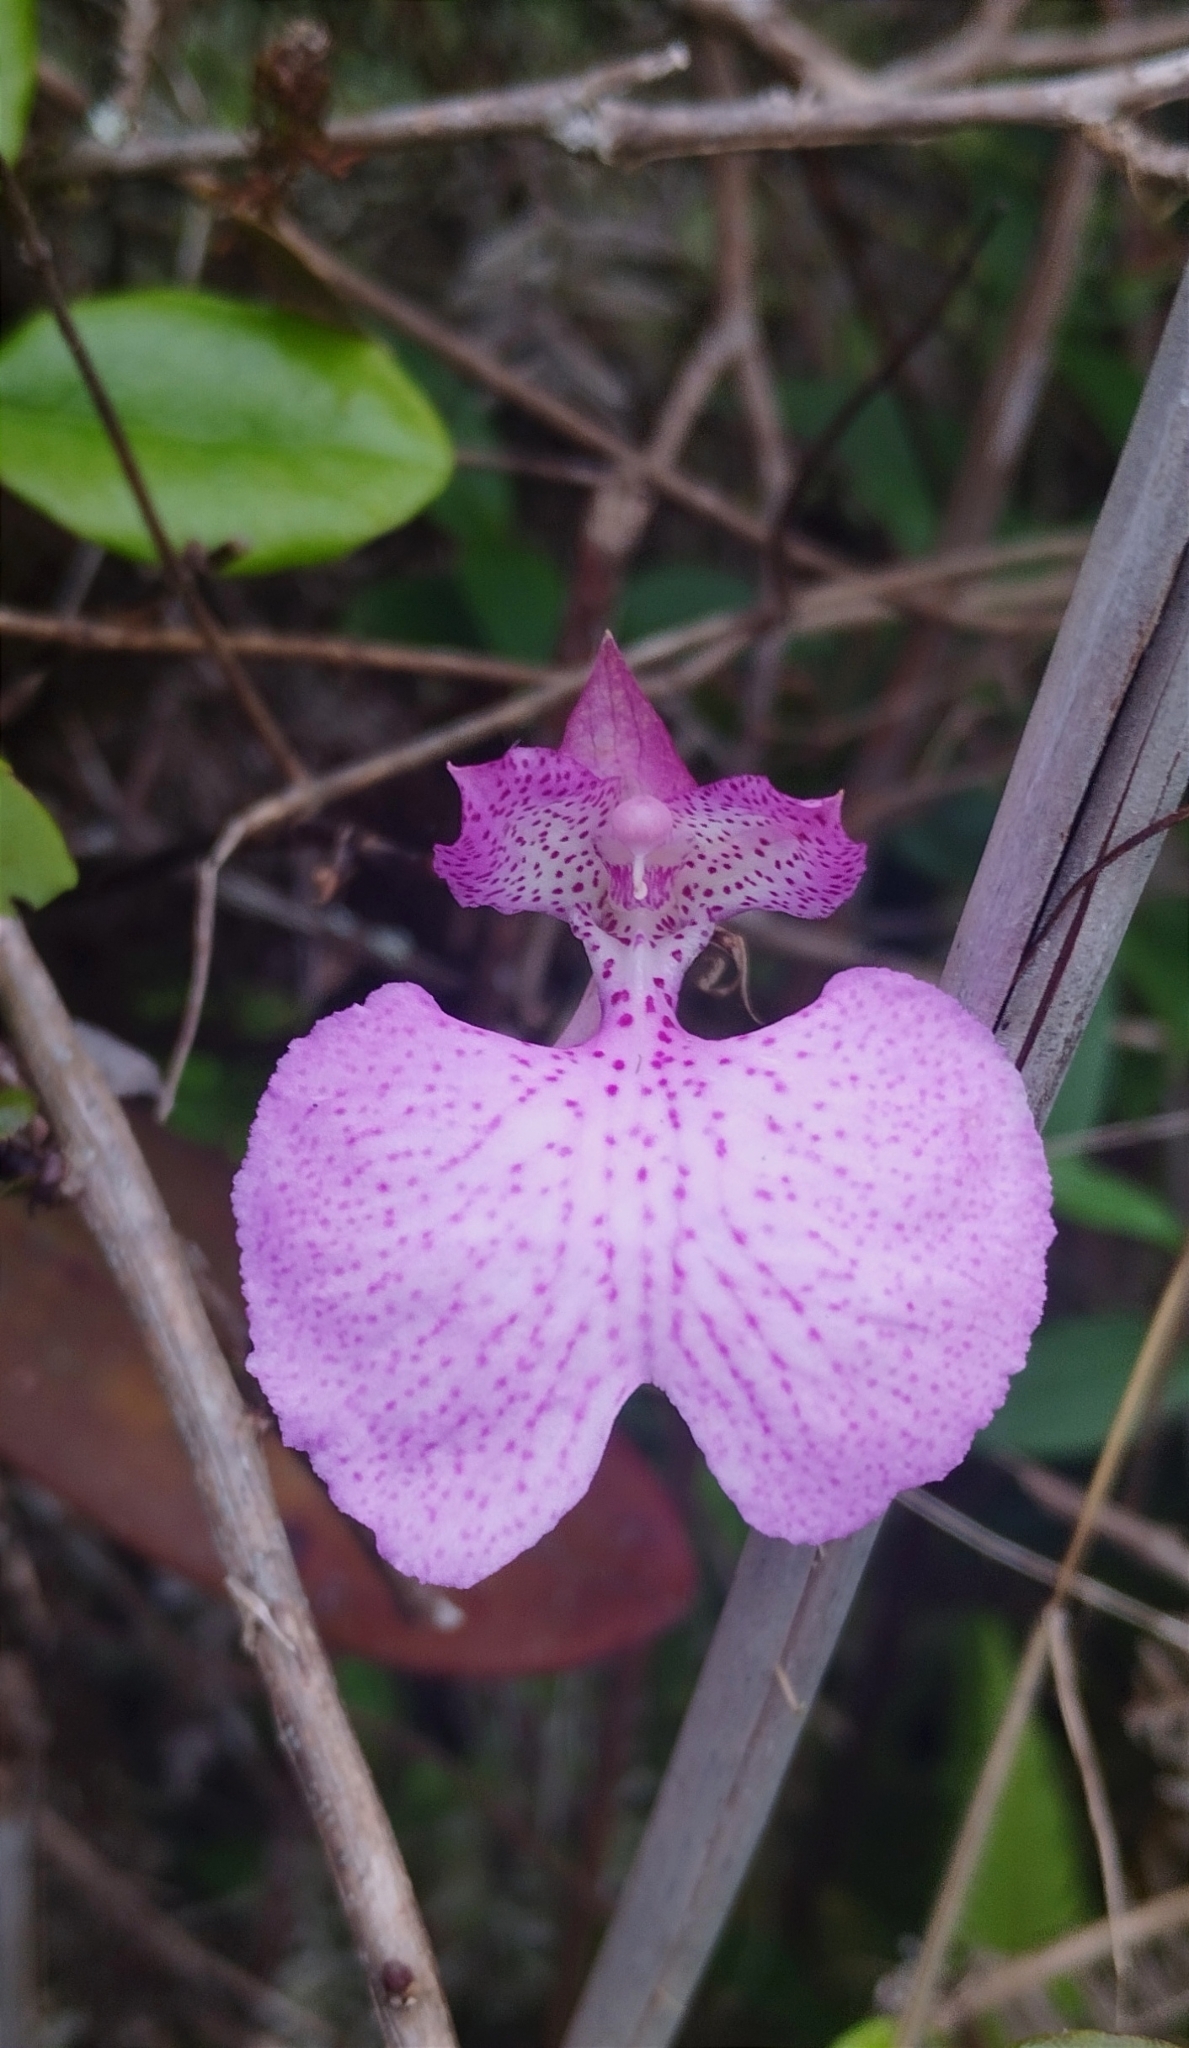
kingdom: Plantae
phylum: Tracheophyta
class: Liliopsida
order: Asparagales
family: Orchidaceae
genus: Comparettia
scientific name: Comparettia macroplectron
